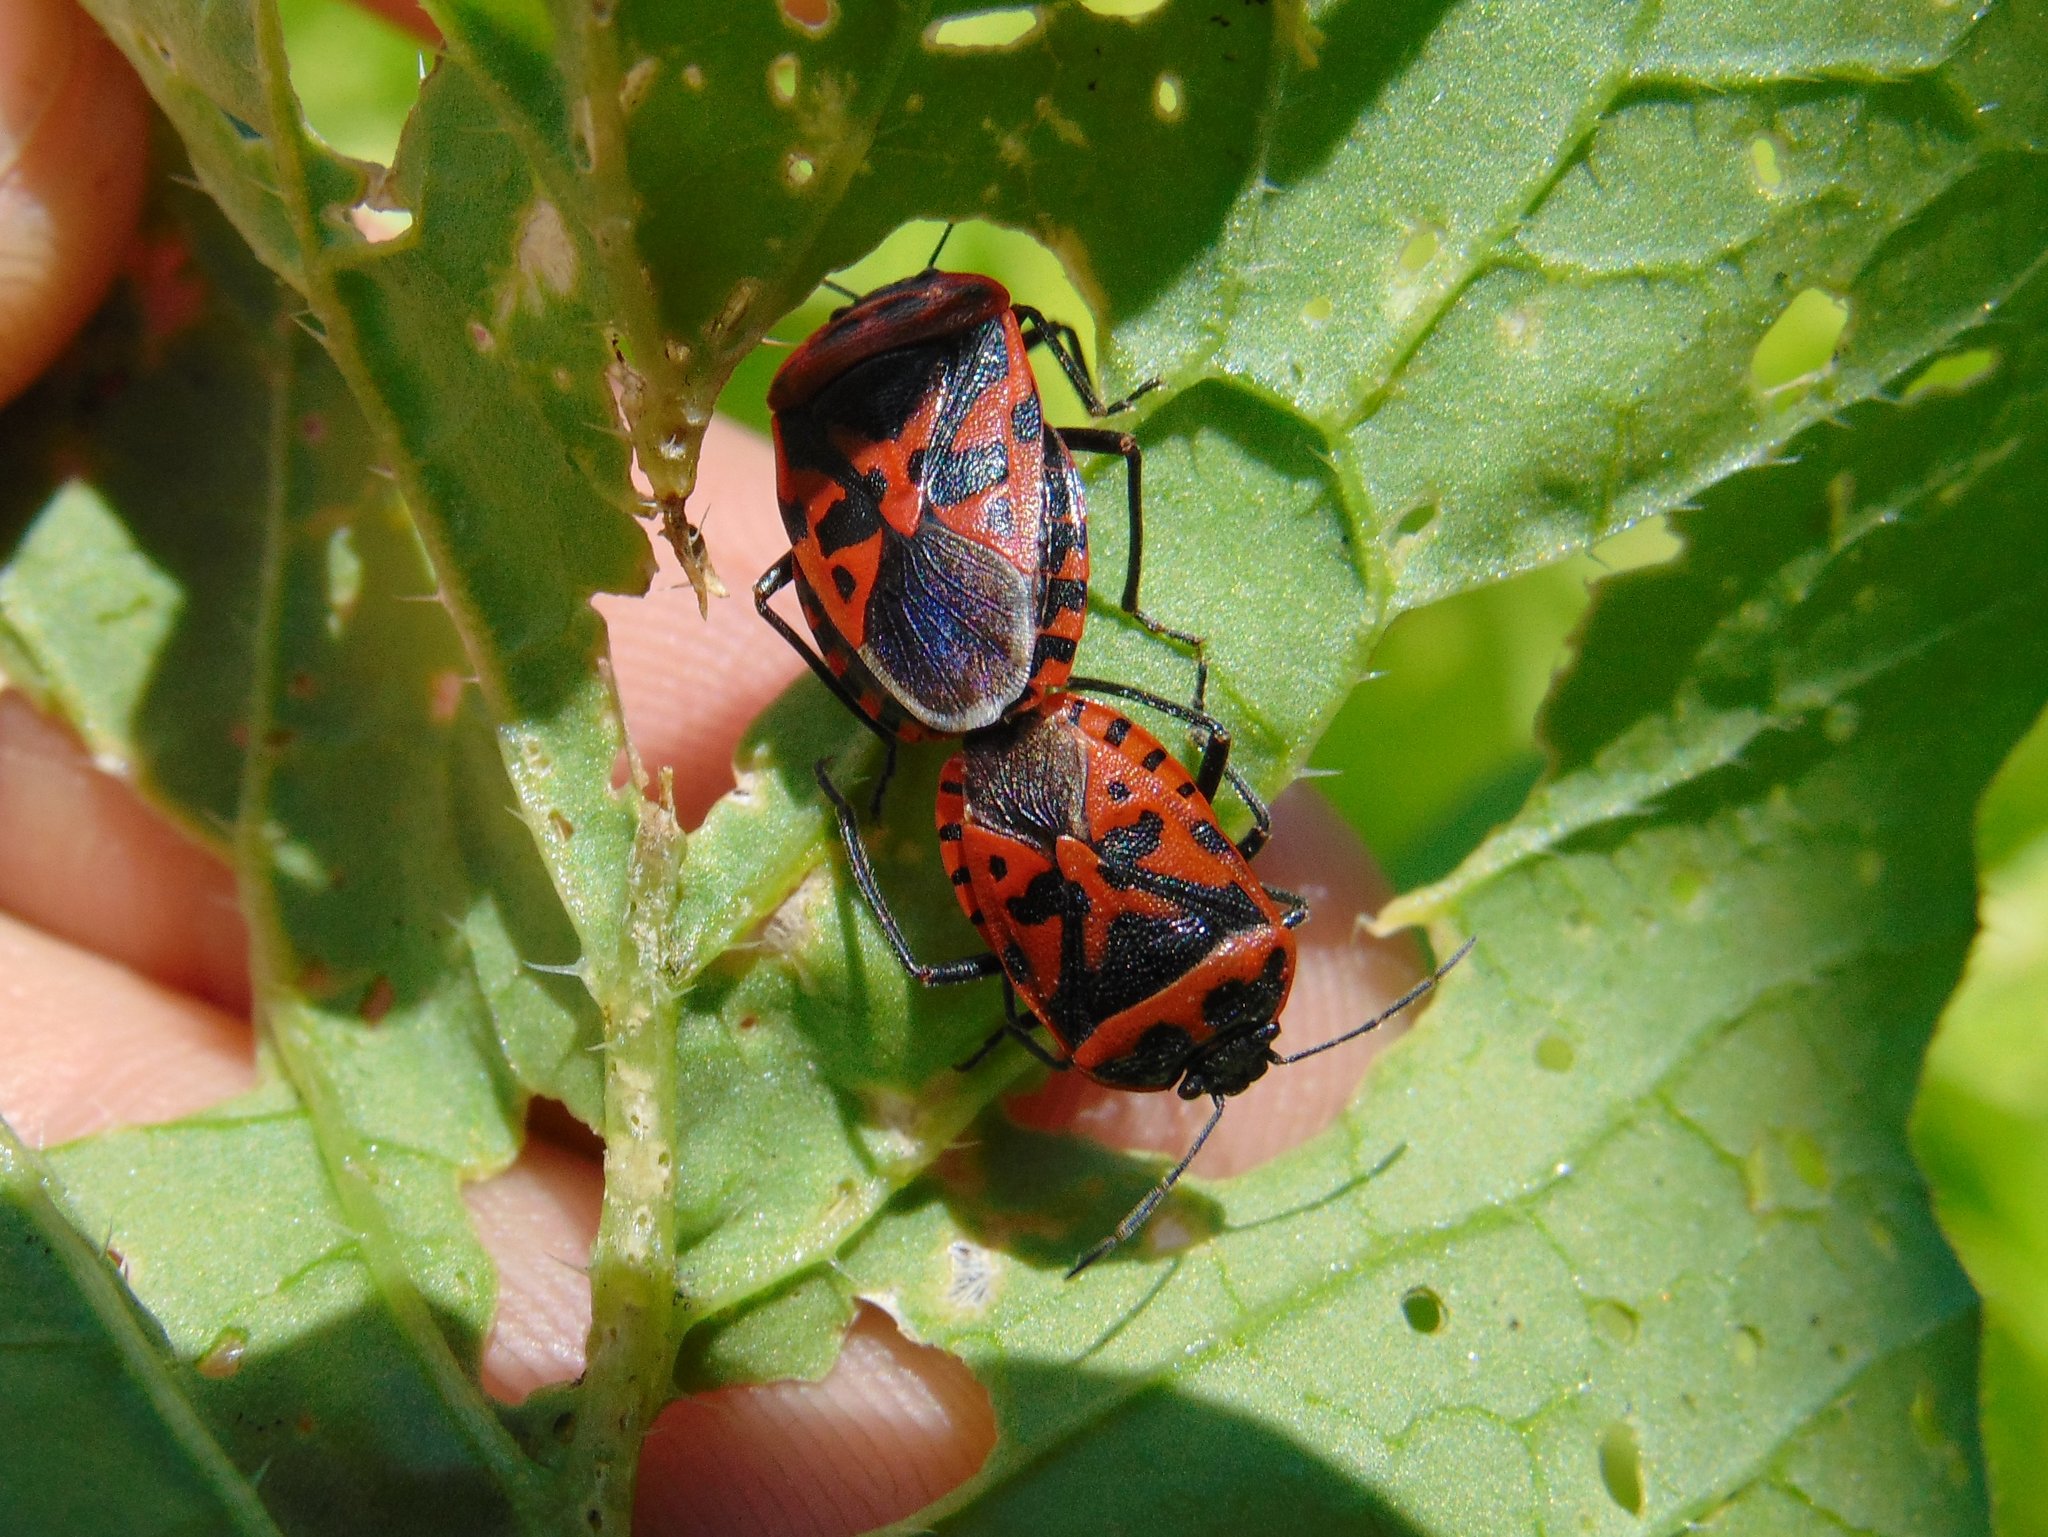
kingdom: Animalia
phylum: Arthropoda
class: Insecta
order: Hemiptera
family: Pentatomidae
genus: Eurydema
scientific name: Eurydema ventralis
